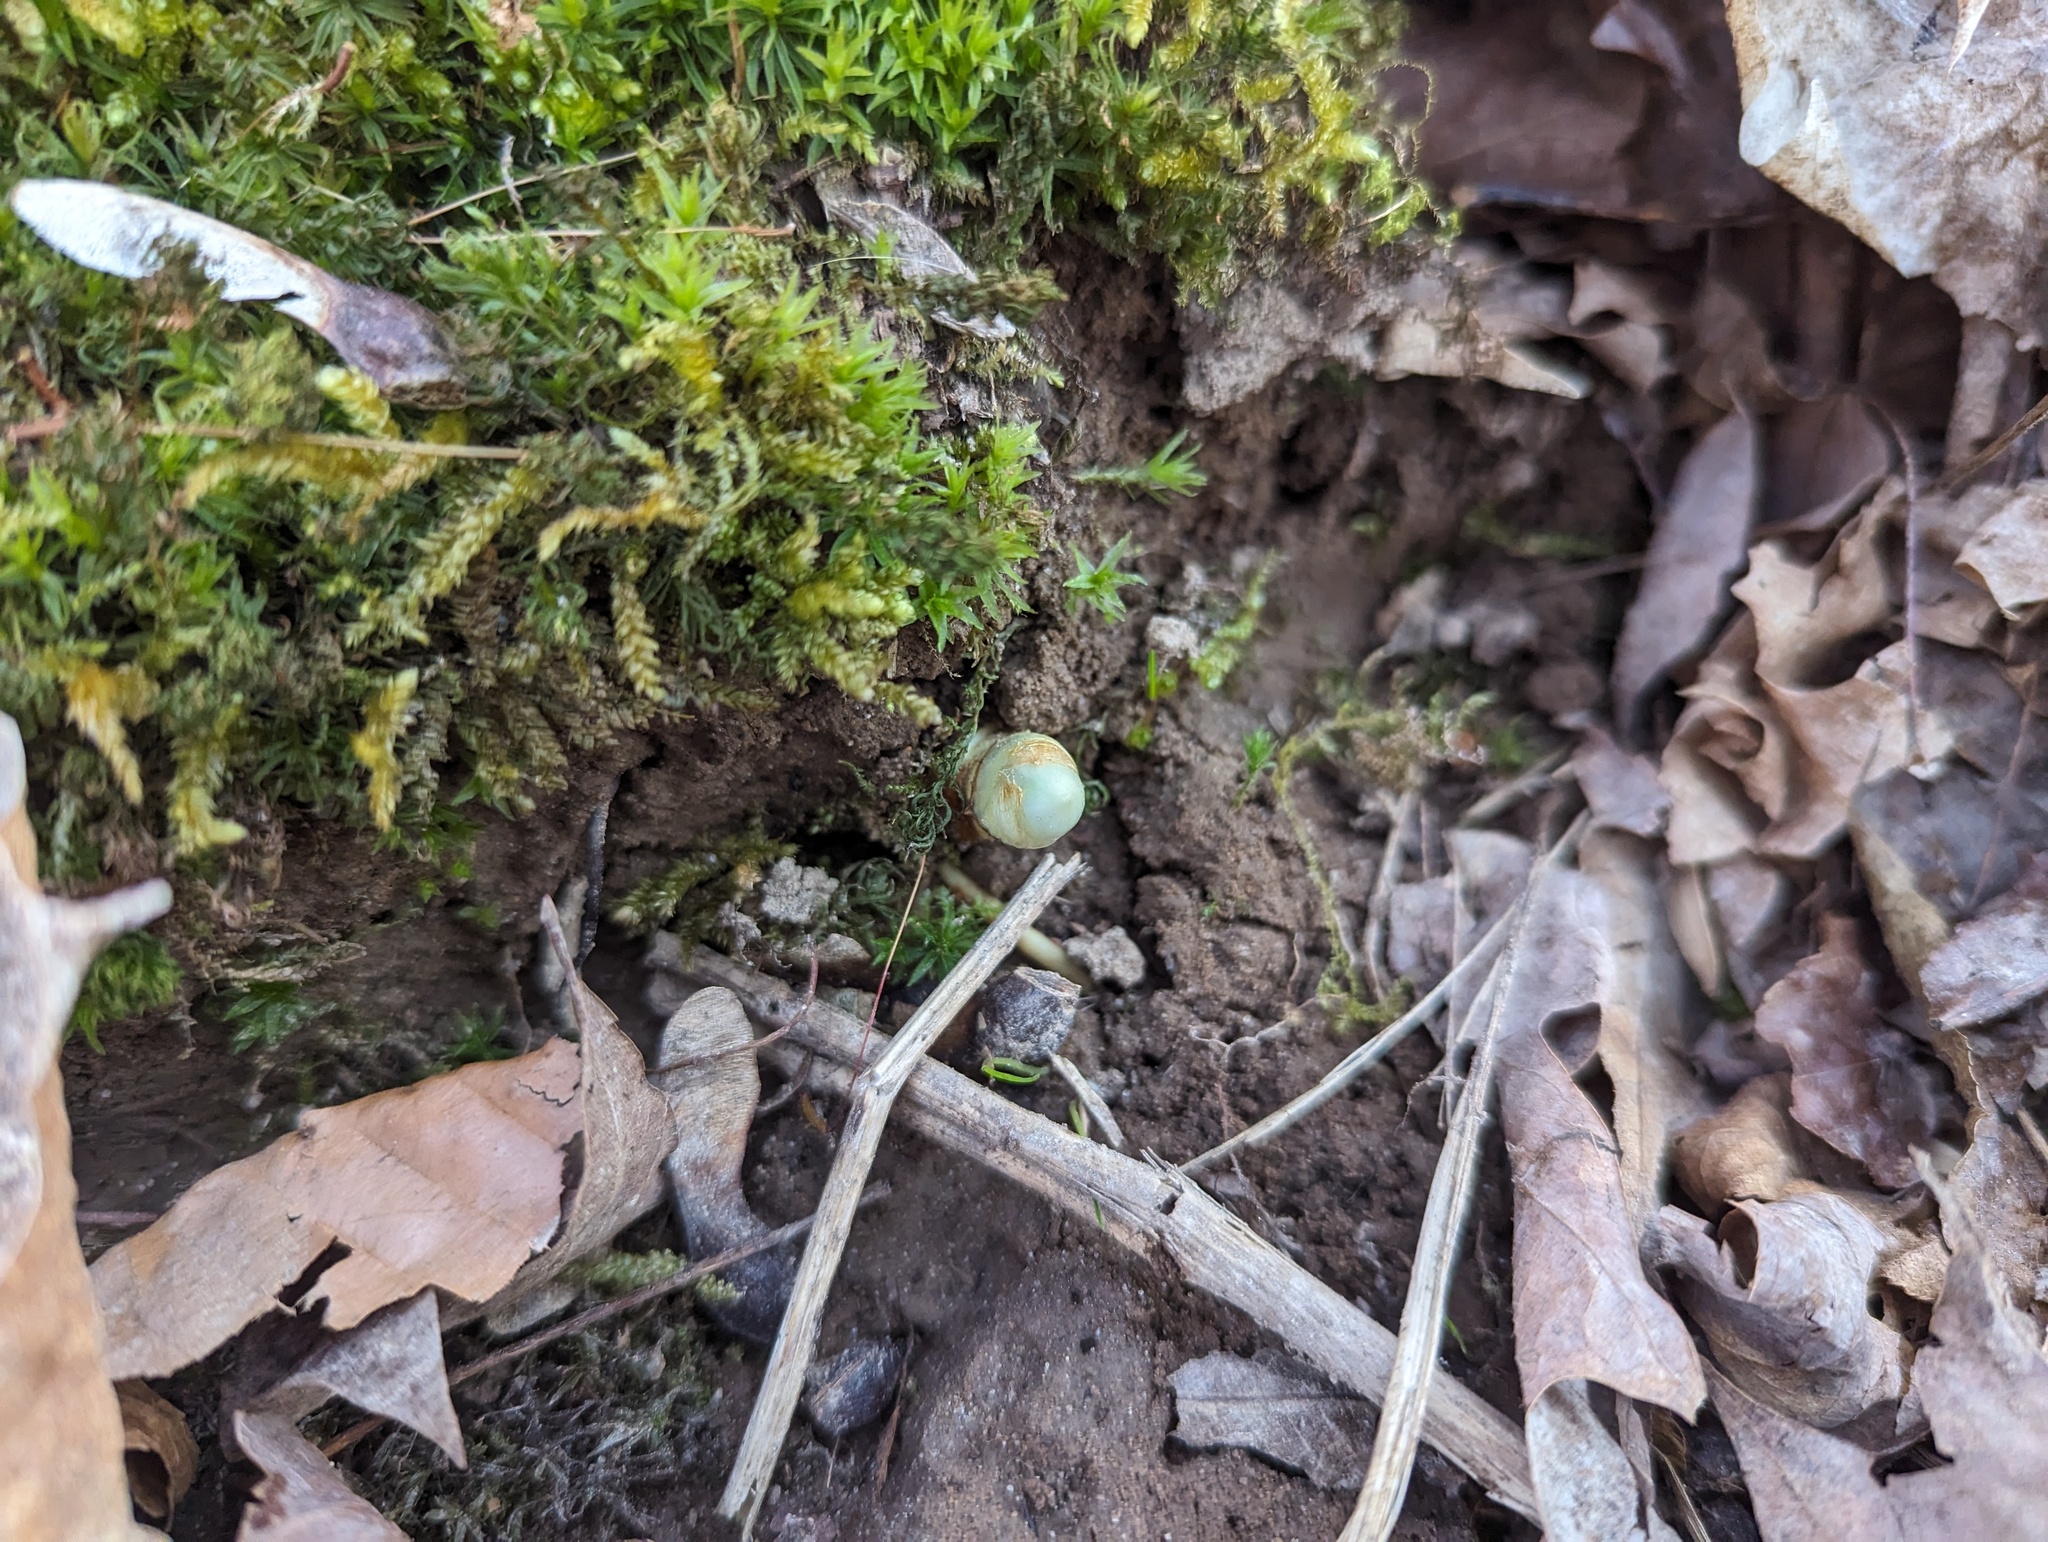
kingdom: Plantae
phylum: Tracheophyta
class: Magnoliopsida
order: Ranunculales
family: Berberidaceae
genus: Podophyllum
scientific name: Podophyllum peltatum
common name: Wild mandrake
